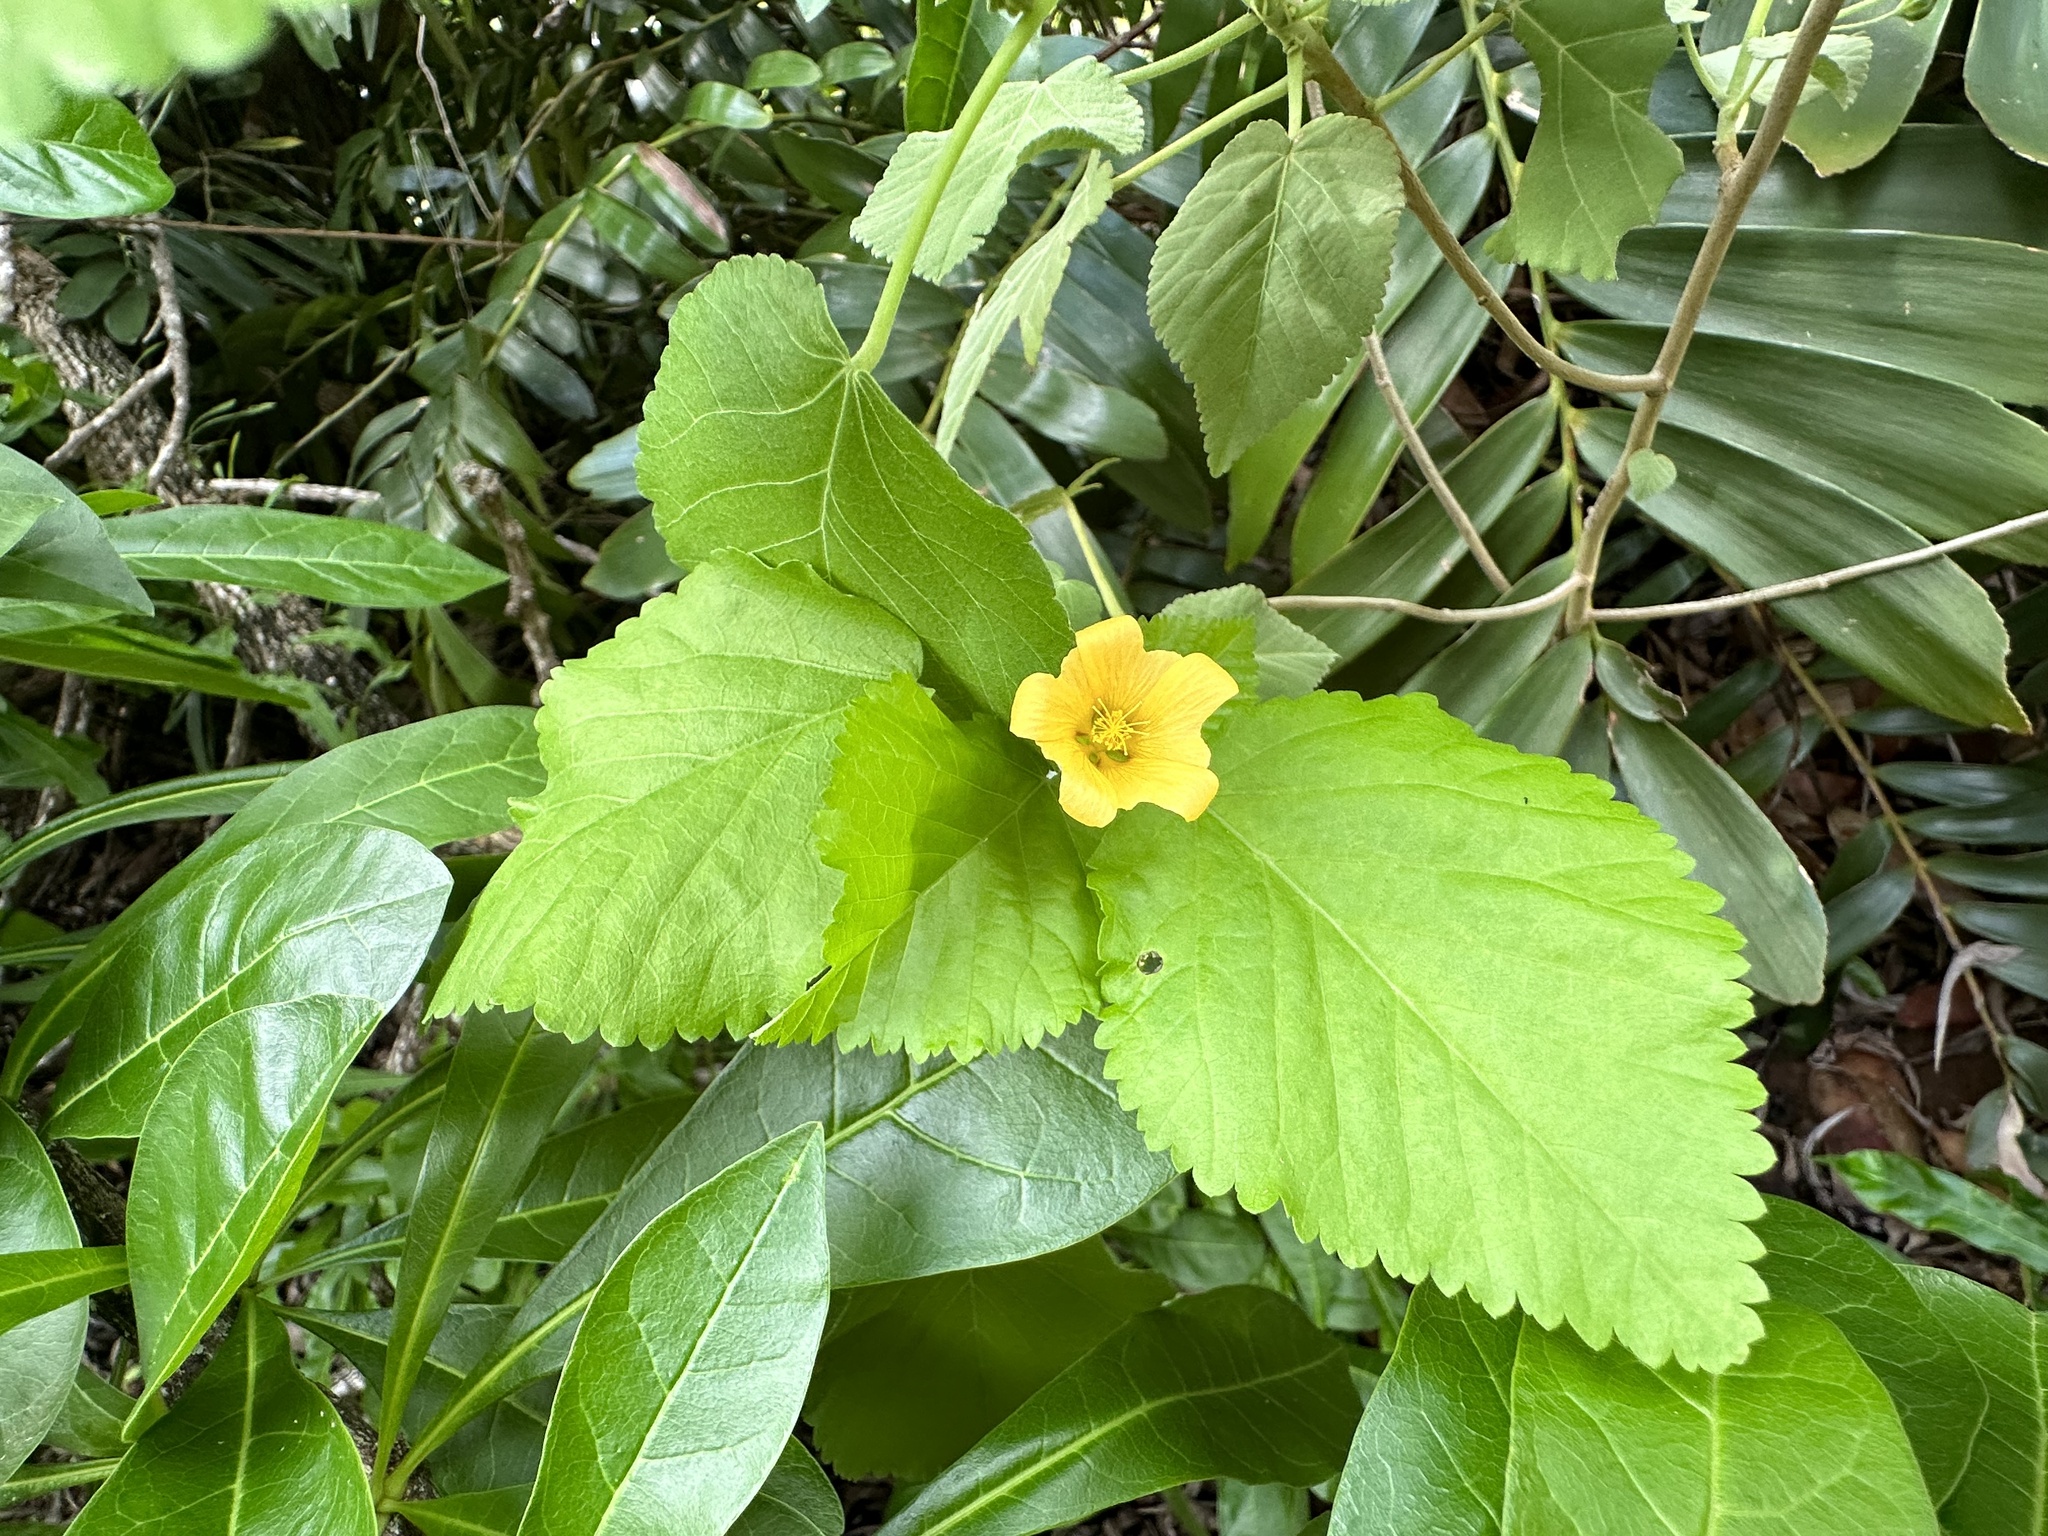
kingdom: Plantae
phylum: Tracheophyta
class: Magnoliopsida
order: Malvales
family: Malvaceae
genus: Sida
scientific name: Sida fallax
